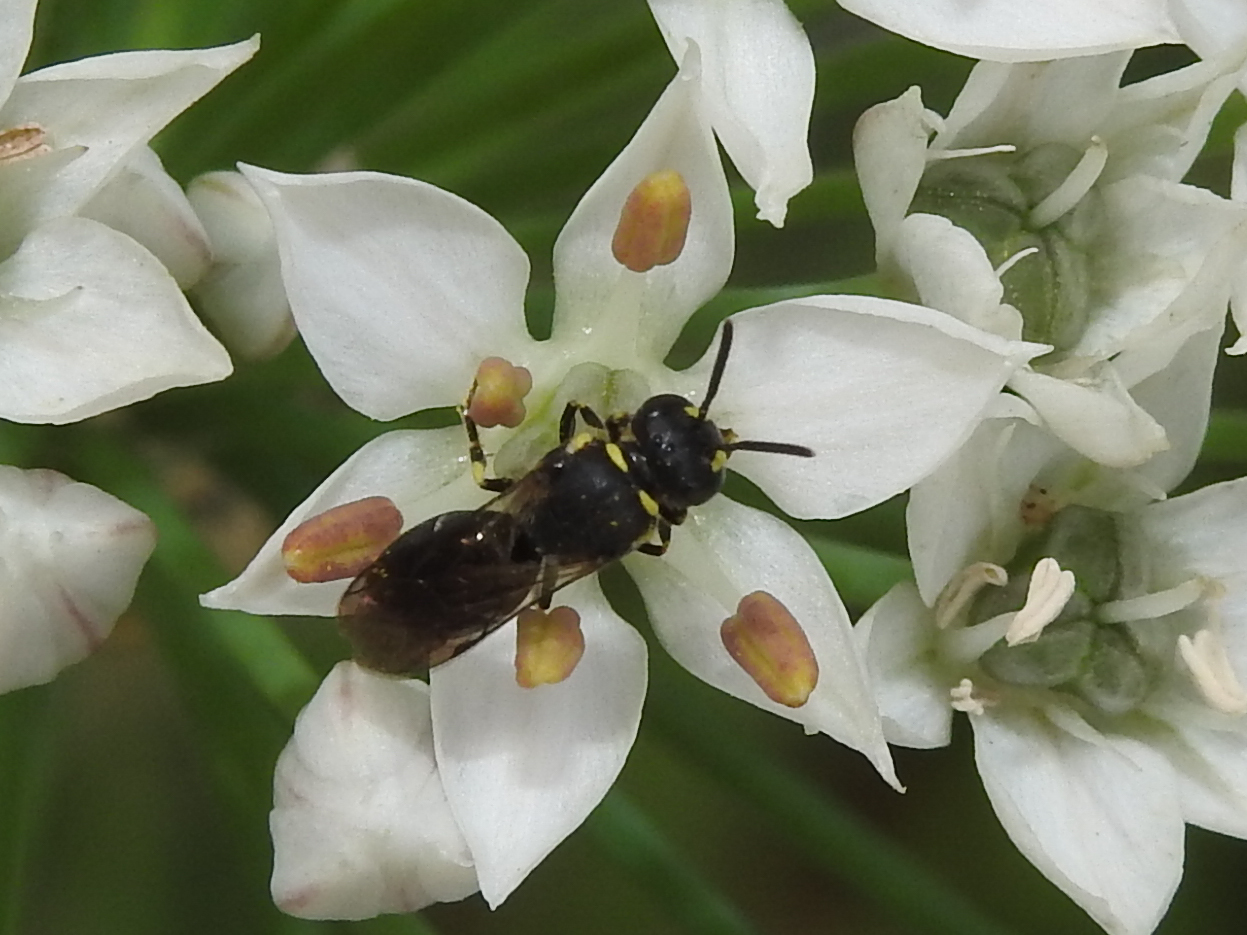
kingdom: Animalia
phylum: Arthropoda
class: Insecta
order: Hymenoptera
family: Colletidae
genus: Hylaeus
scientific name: Hylaeus modestus
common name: Yellow-faced bee
